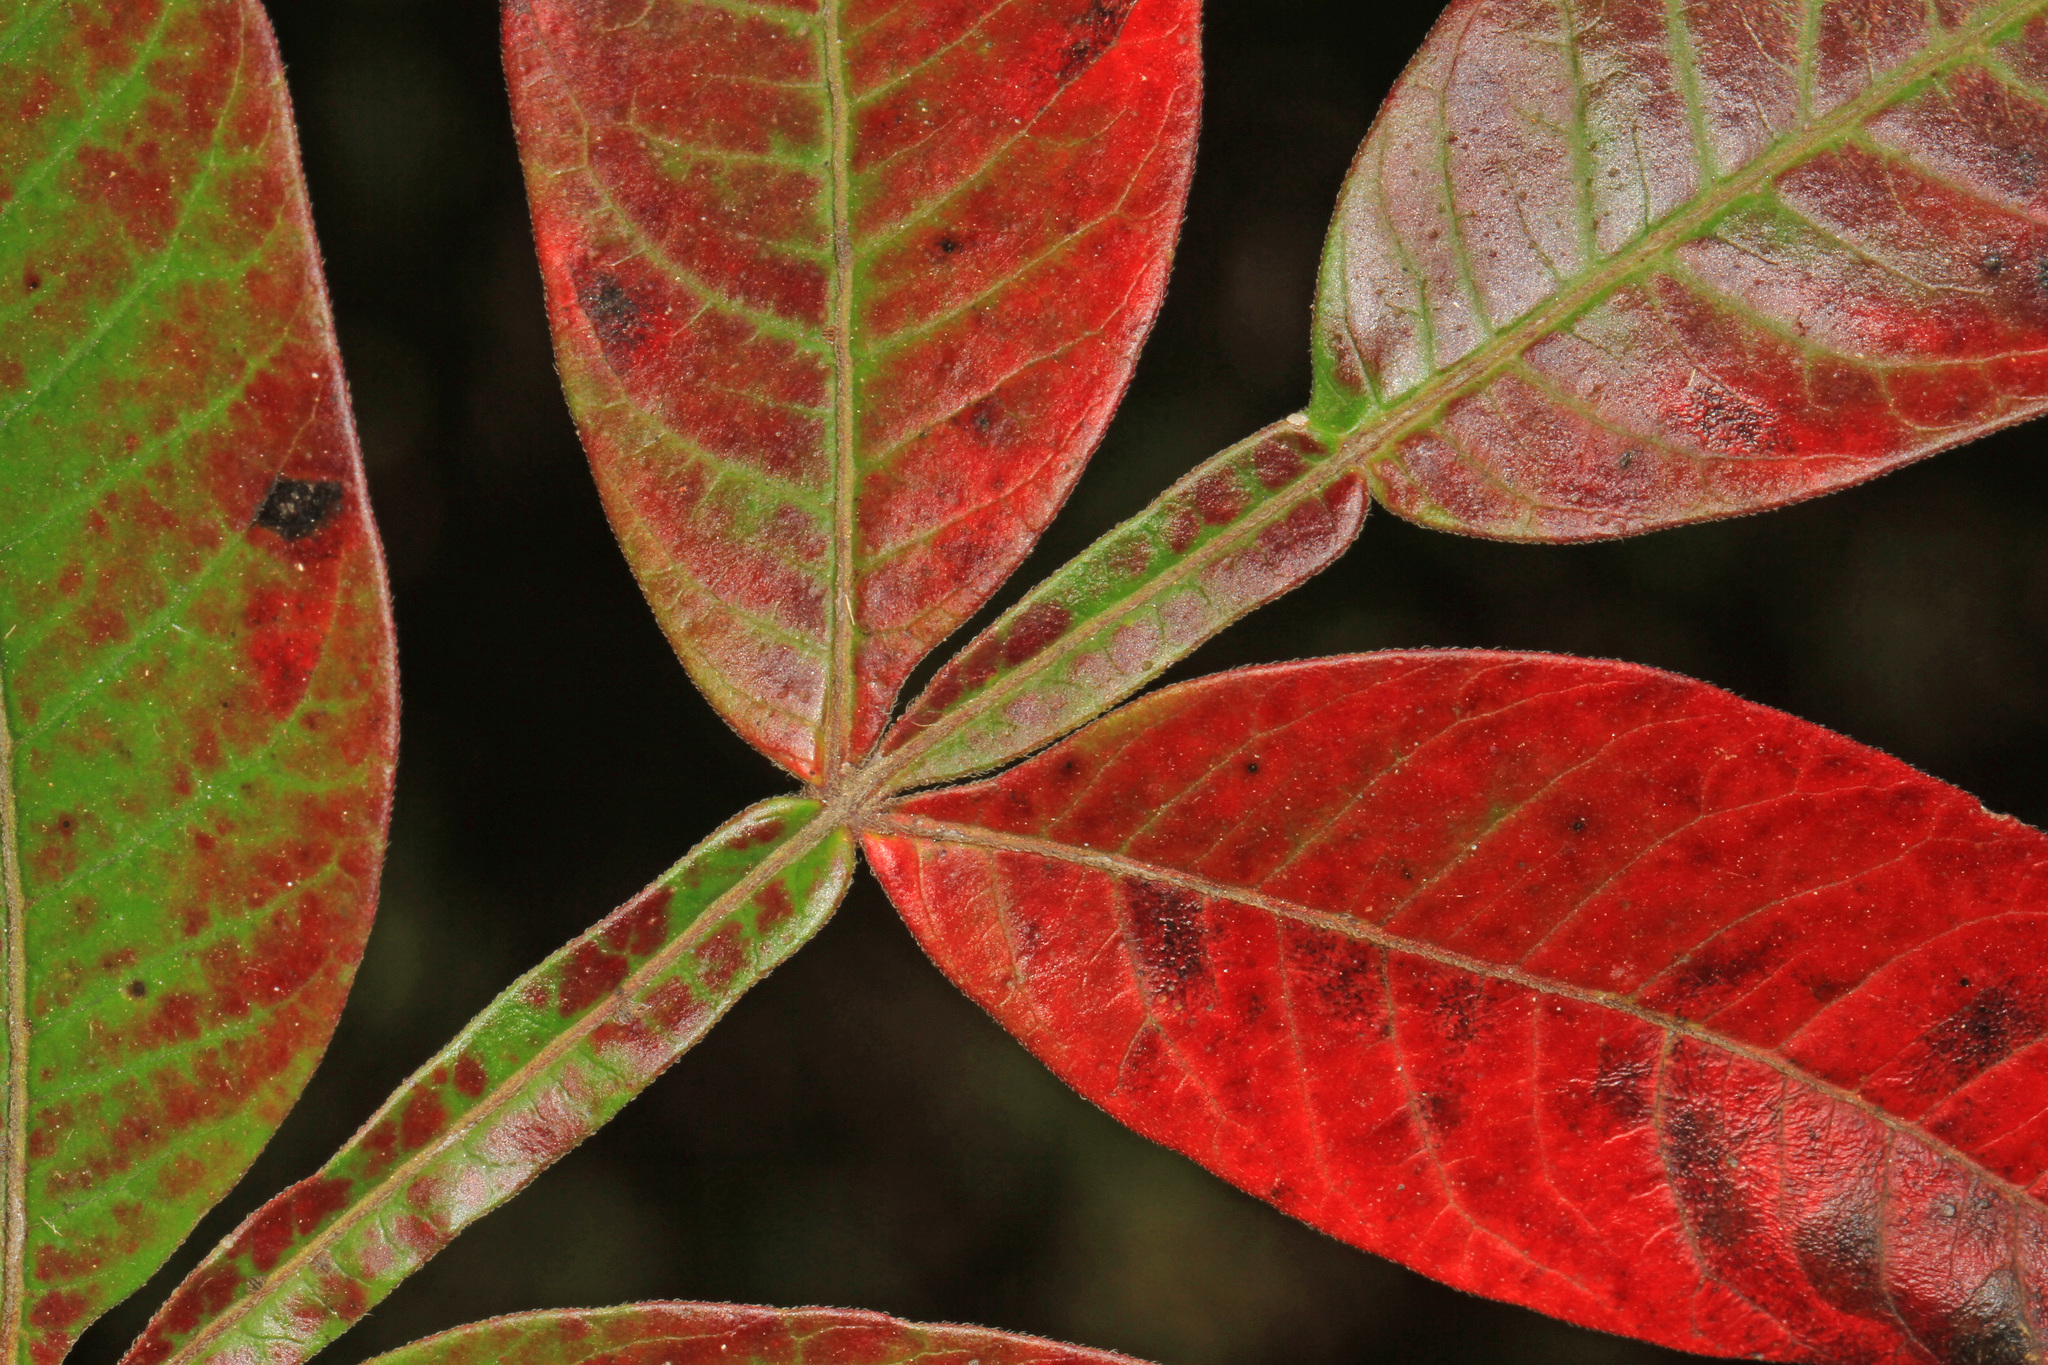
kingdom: Plantae
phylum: Tracheophyta
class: Magnoliopsida
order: Sapindales
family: Anacardiaceae
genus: Rhus
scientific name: Rhus copallina
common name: Shining sumac
